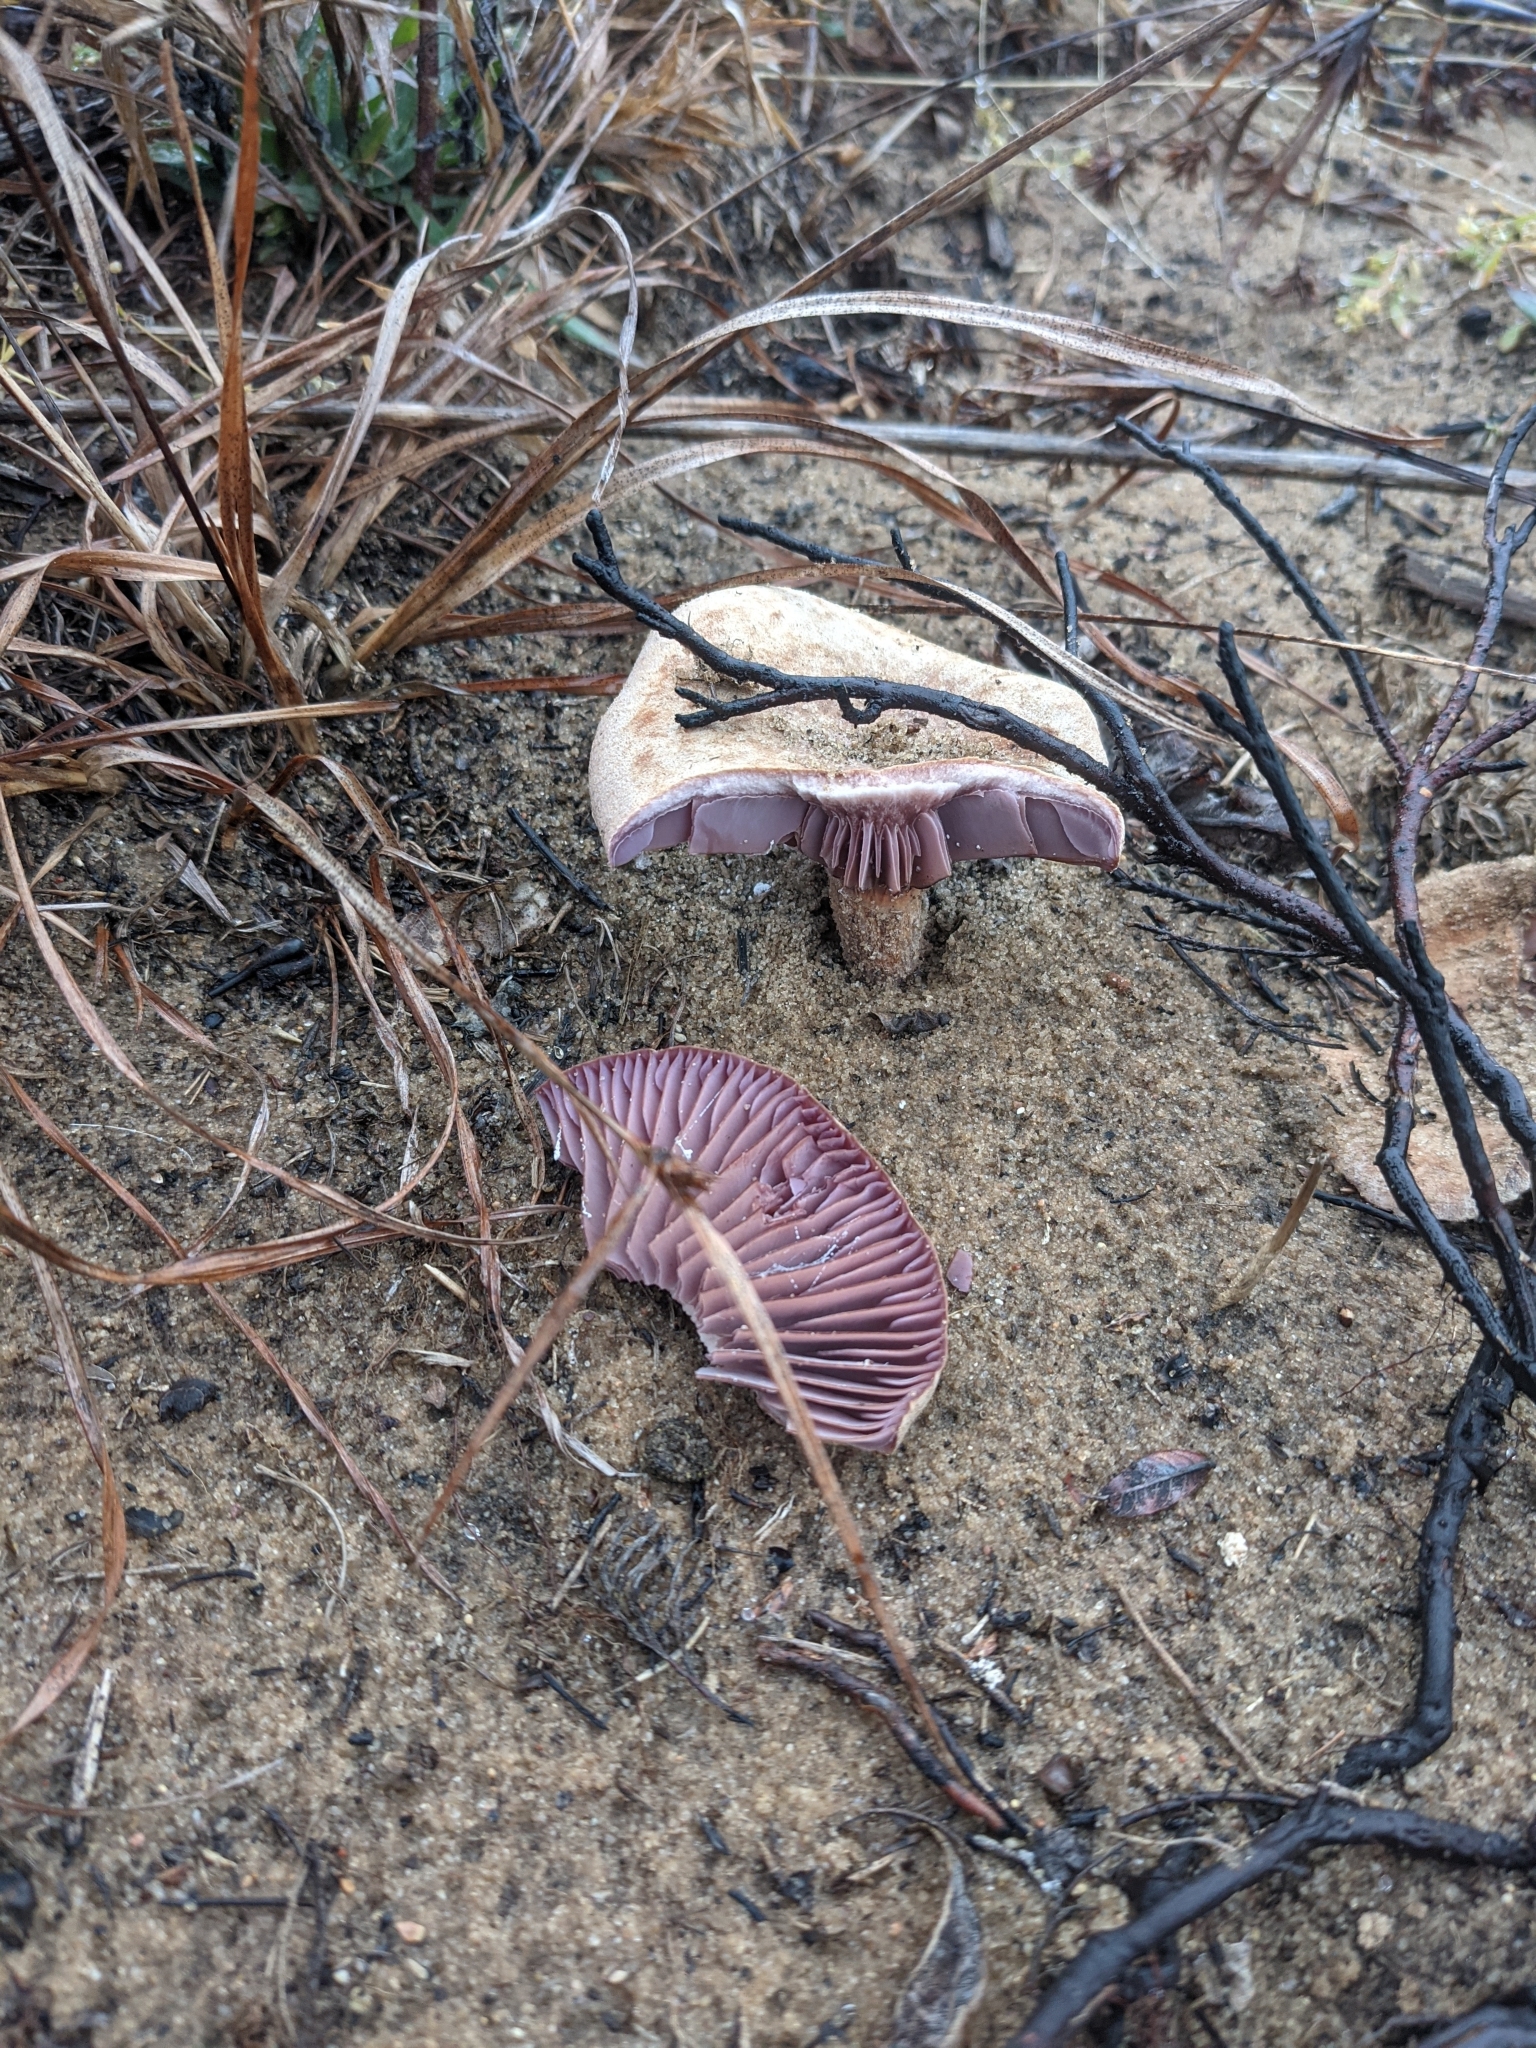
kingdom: Fungi
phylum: Basidiomycota
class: Agaricomycetes
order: Agaricales
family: Hydnangiaceae
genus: Laccaria
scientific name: Laccaria trullissata
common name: Sandy laccaria
